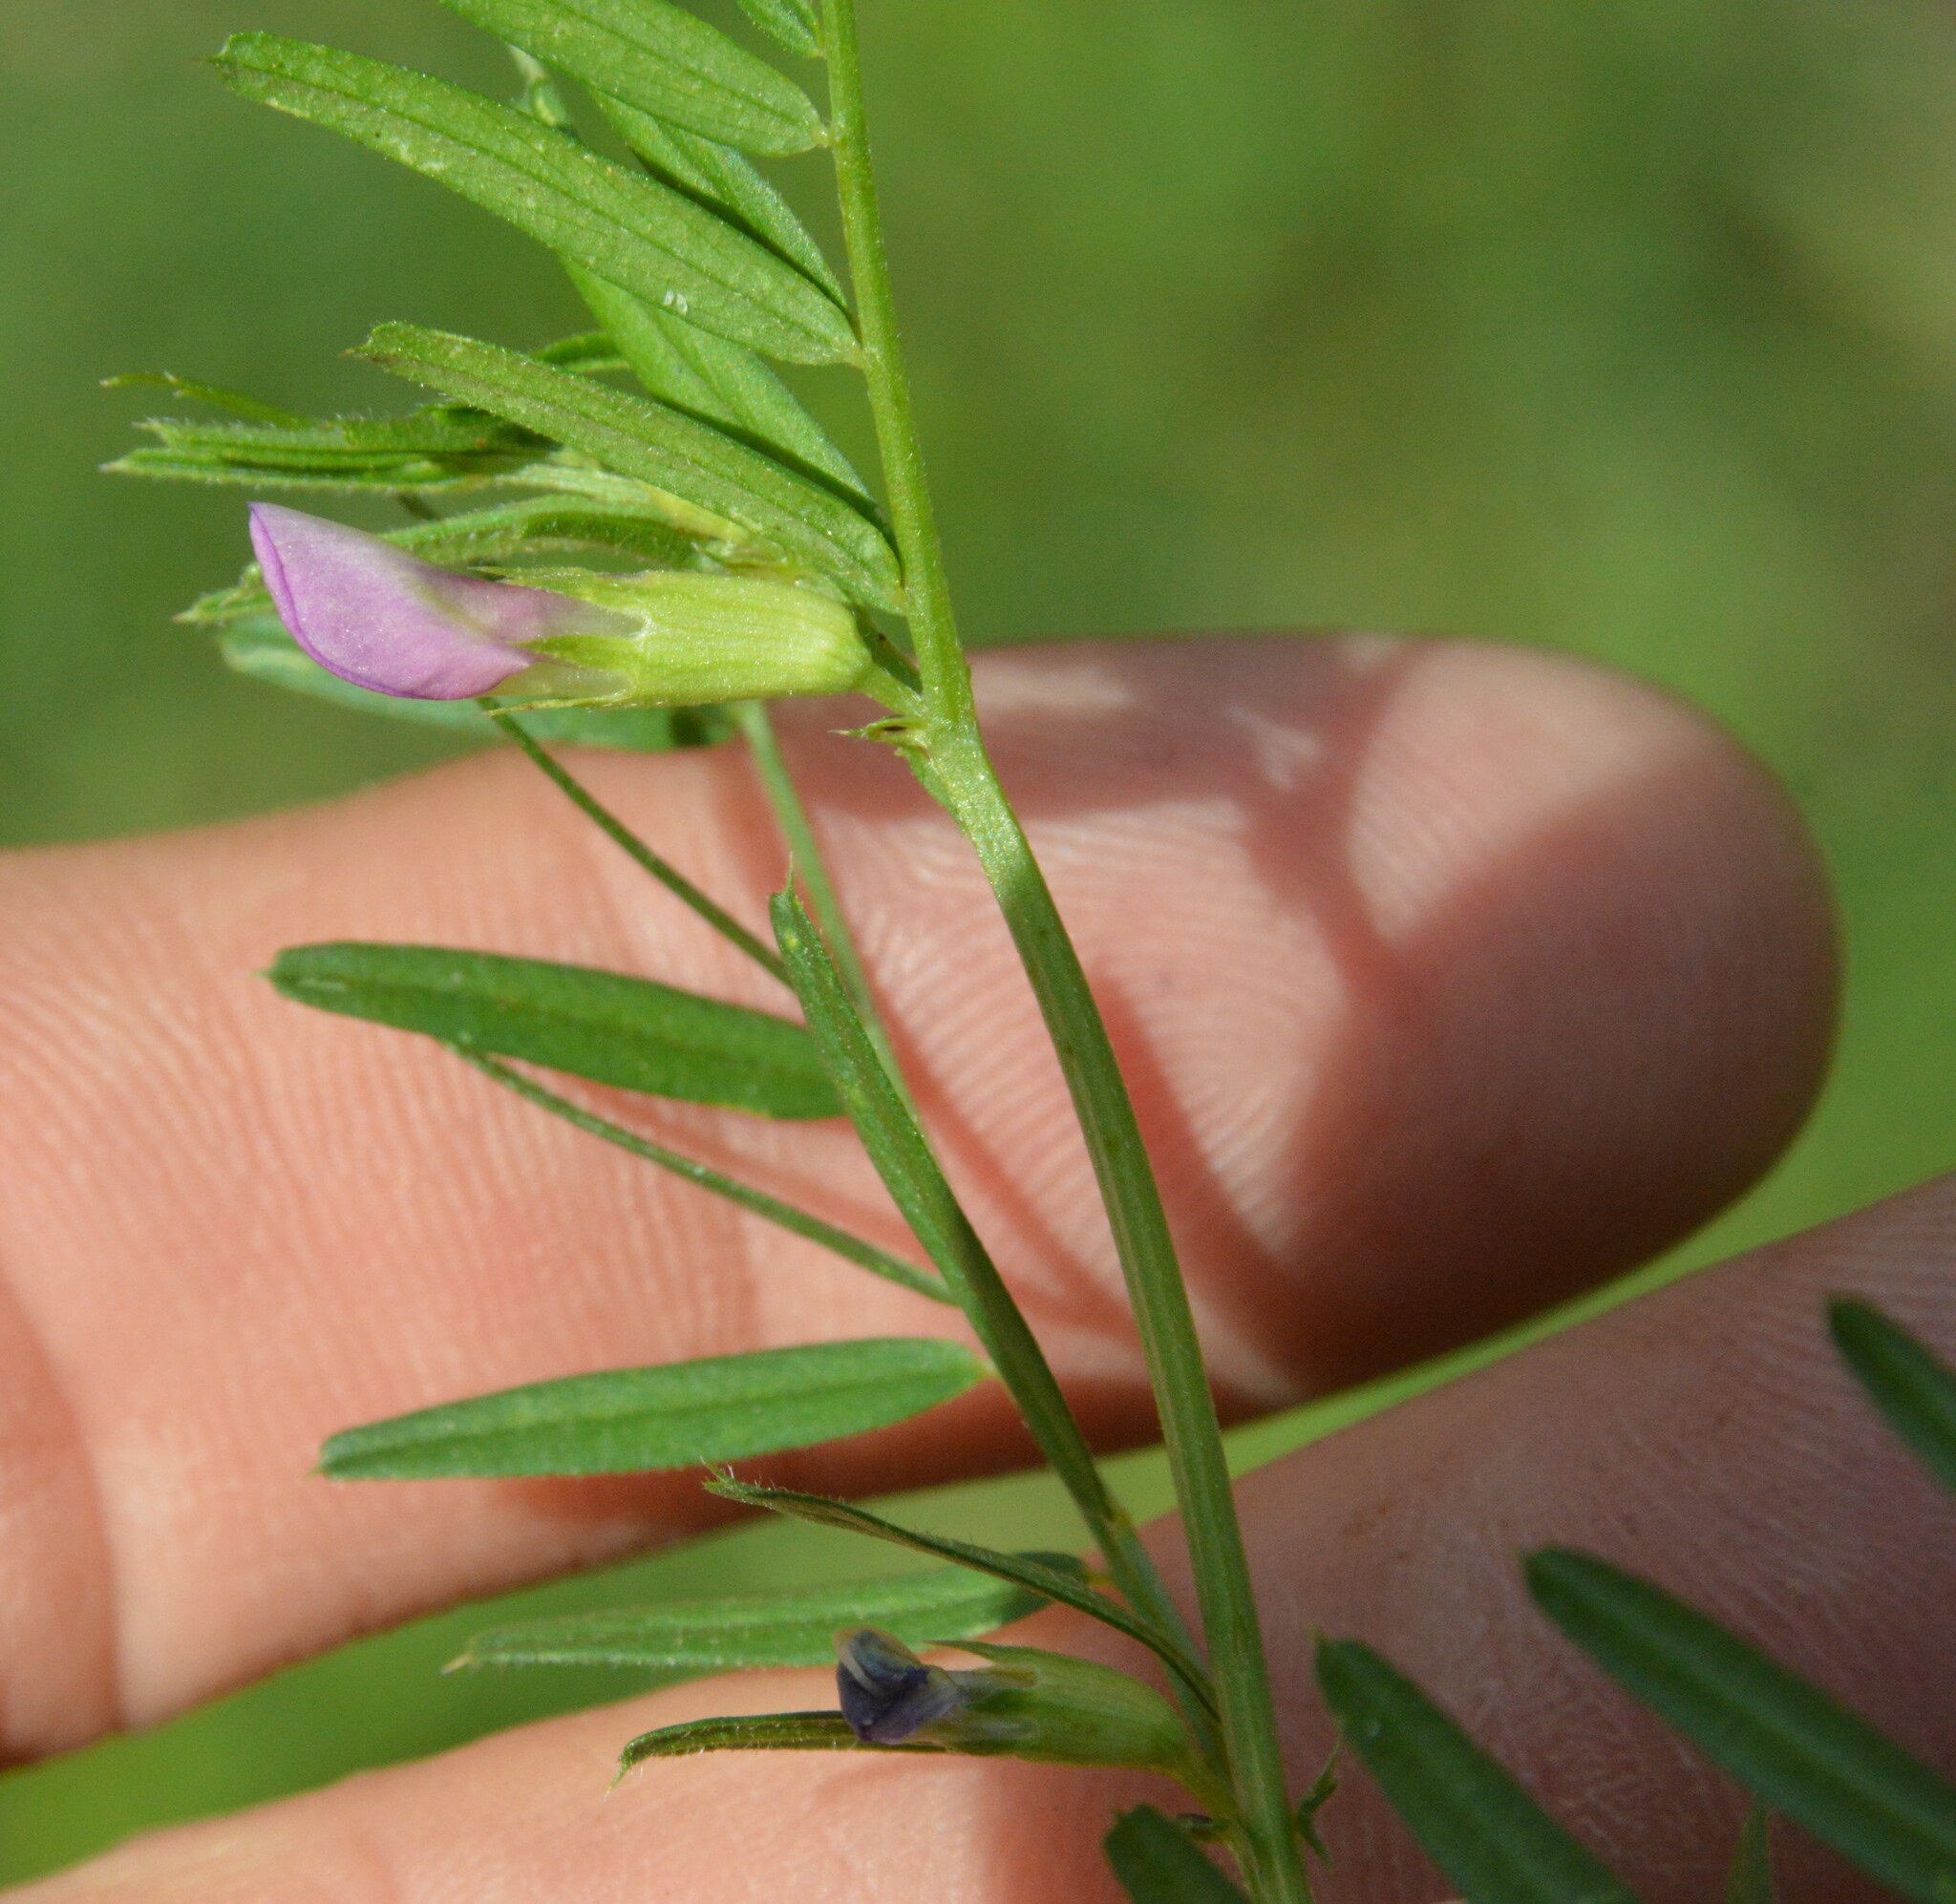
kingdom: Plantae
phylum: Tracheophyta
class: Magnoliopsida
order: Fabales
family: Fabaceae
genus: Vicia
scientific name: Vicia sativa
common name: Garden vetch
